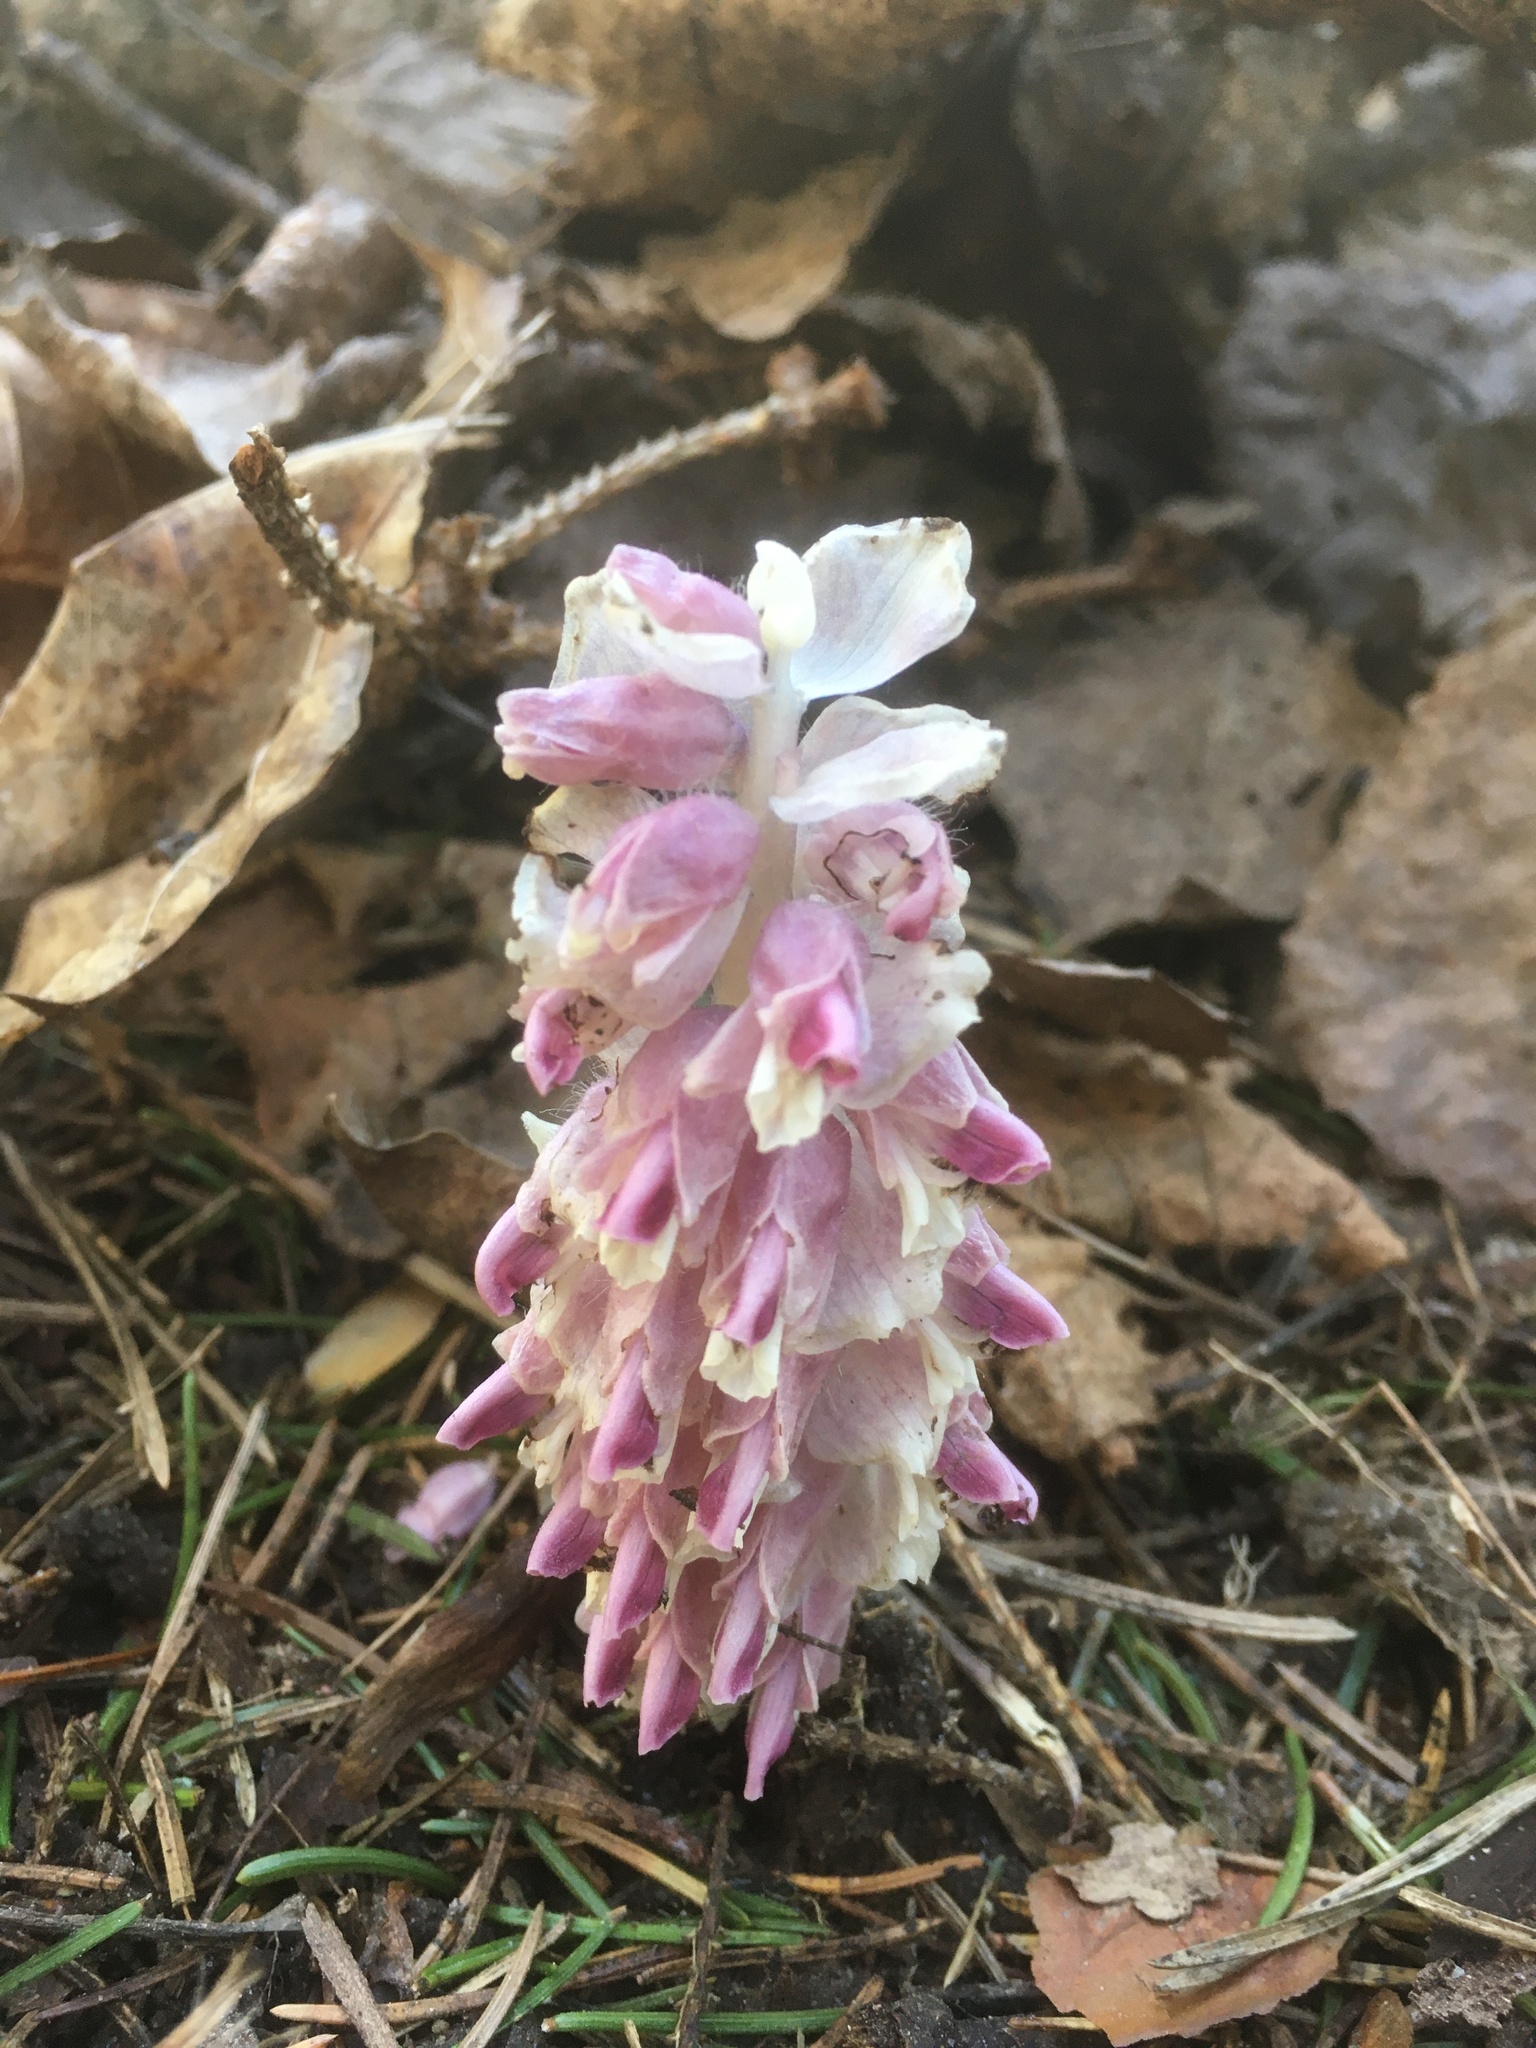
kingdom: Plantae
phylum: Tracheophyta
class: Magnoliopsida
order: Lamiales
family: Orobanchaceae
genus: Lathraea
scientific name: Lathraea squamaria
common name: Toothwort
